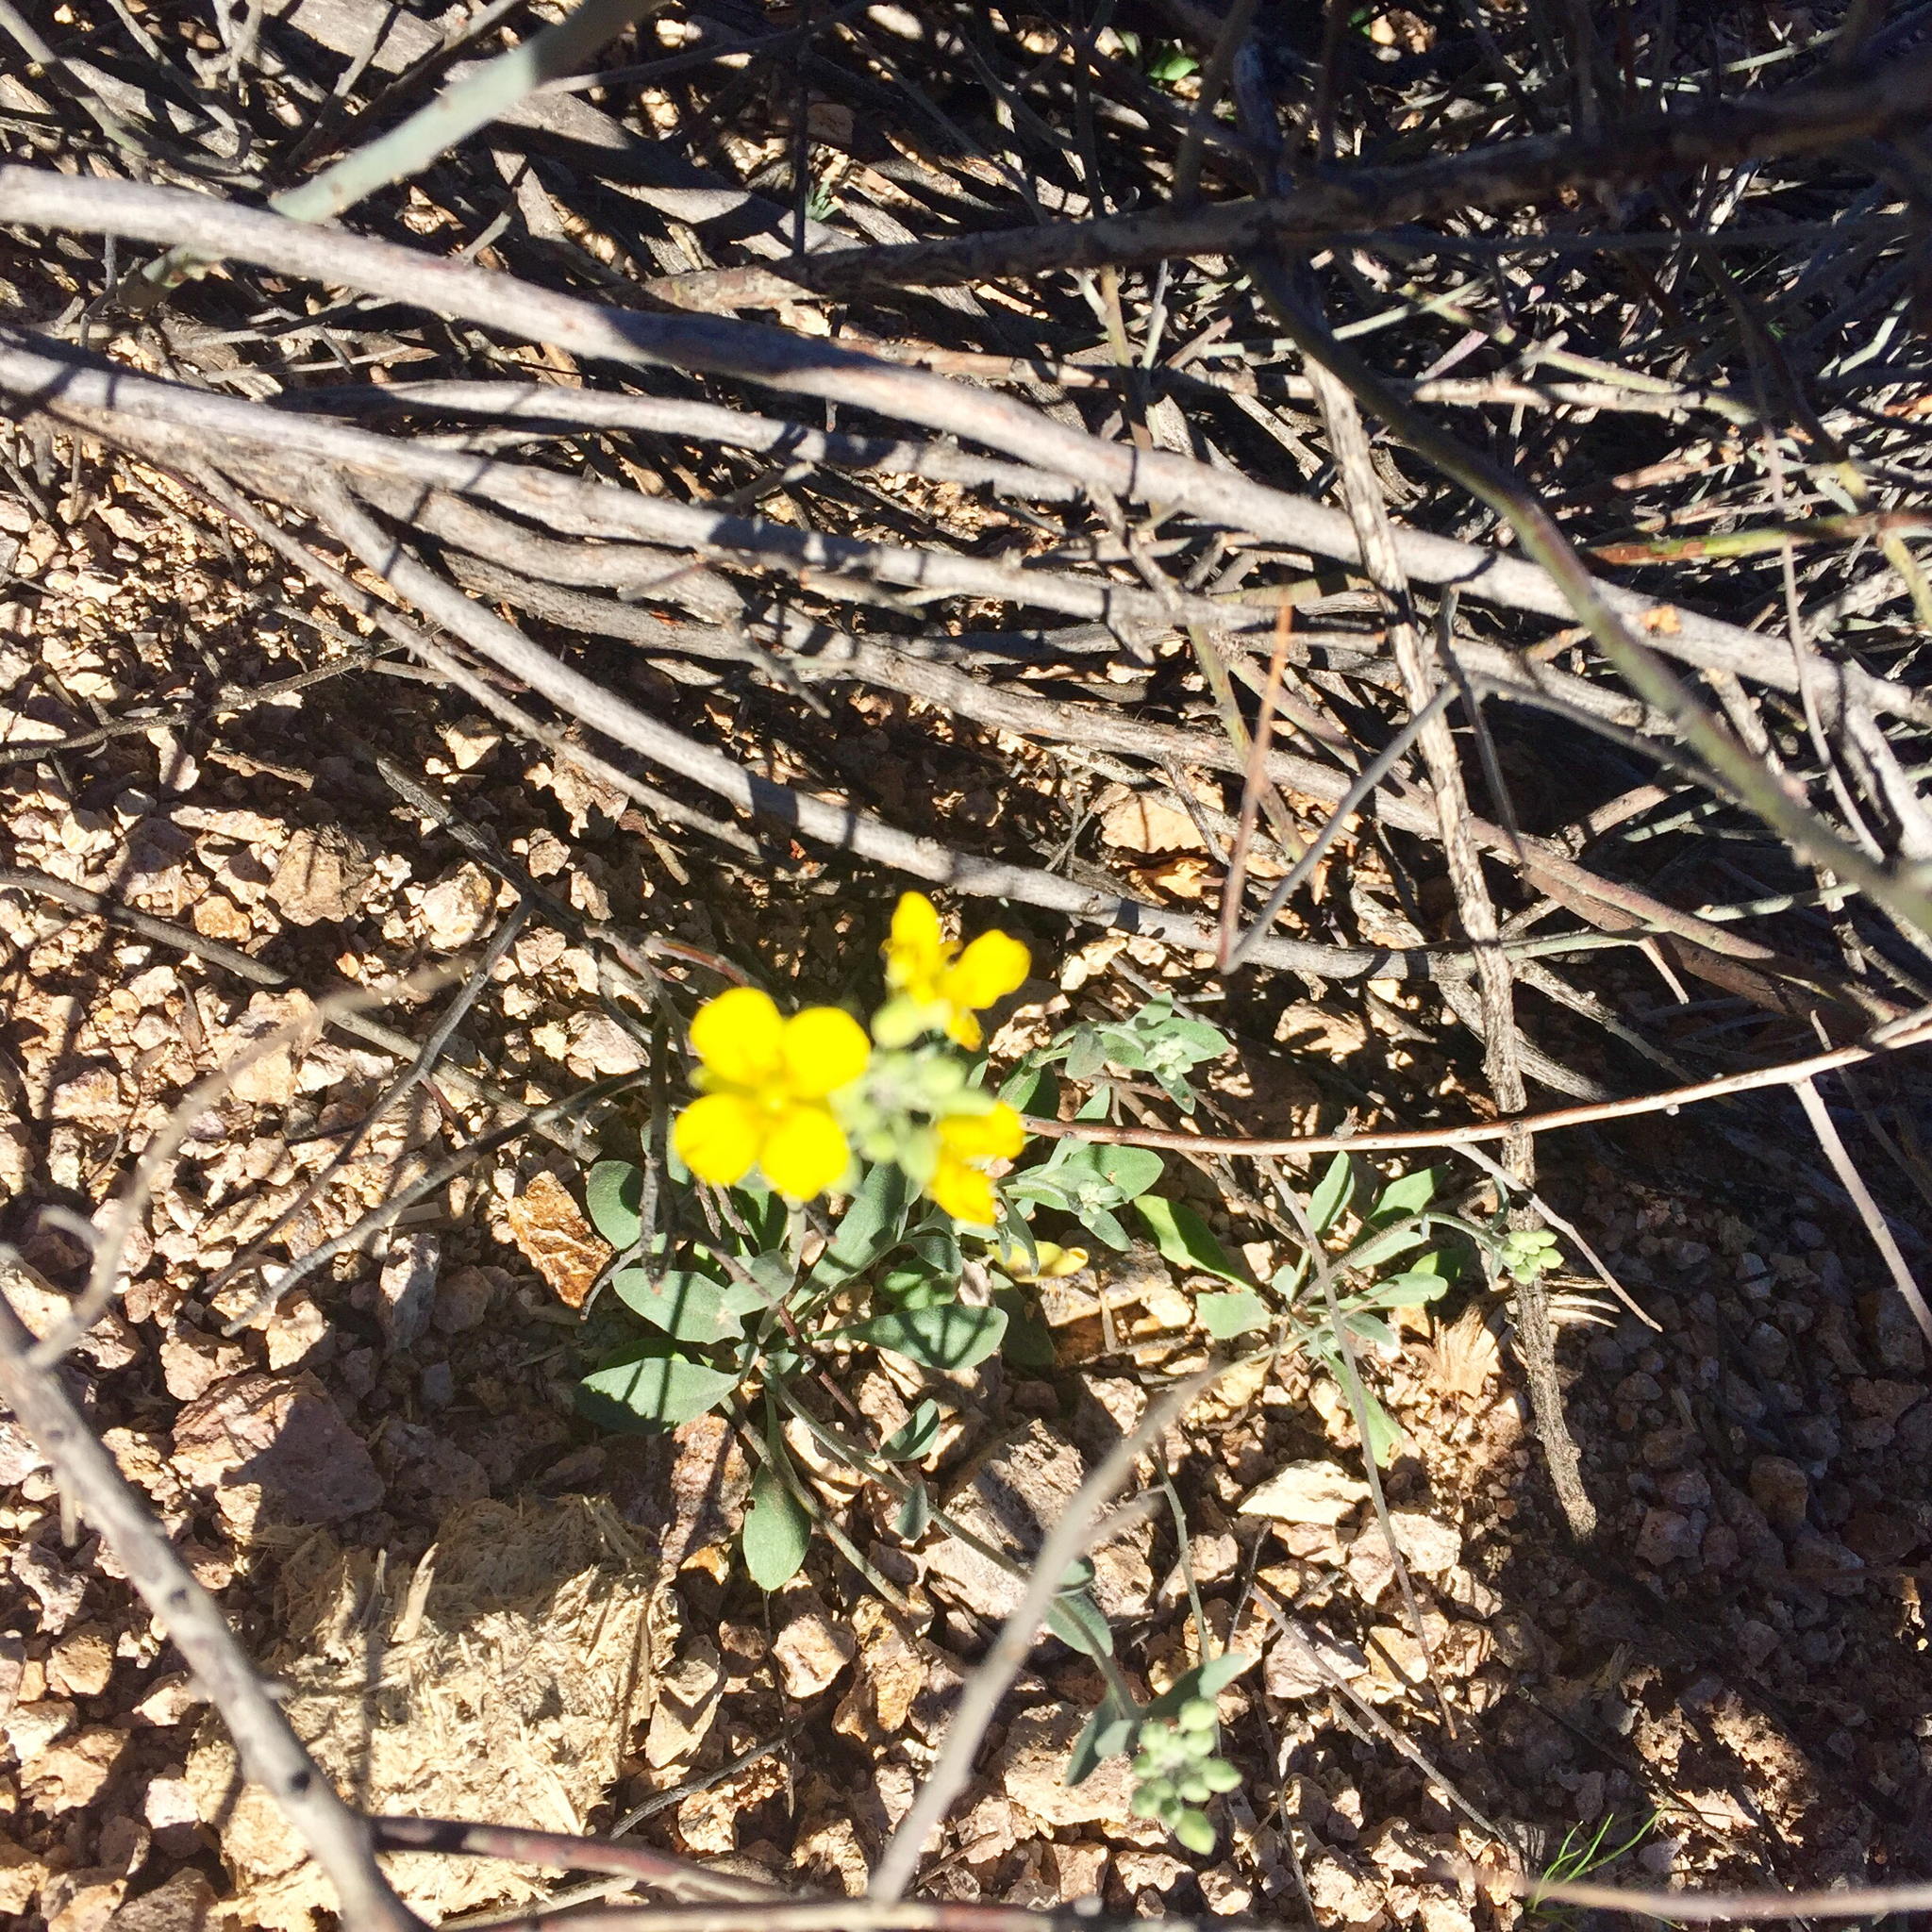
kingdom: Plantae
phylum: Tracheophyta
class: Magnoliopsida
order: Brassicales
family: Brassicaceae
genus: Physaria
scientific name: Physaria gordonii
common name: Gordon's bladderpod
